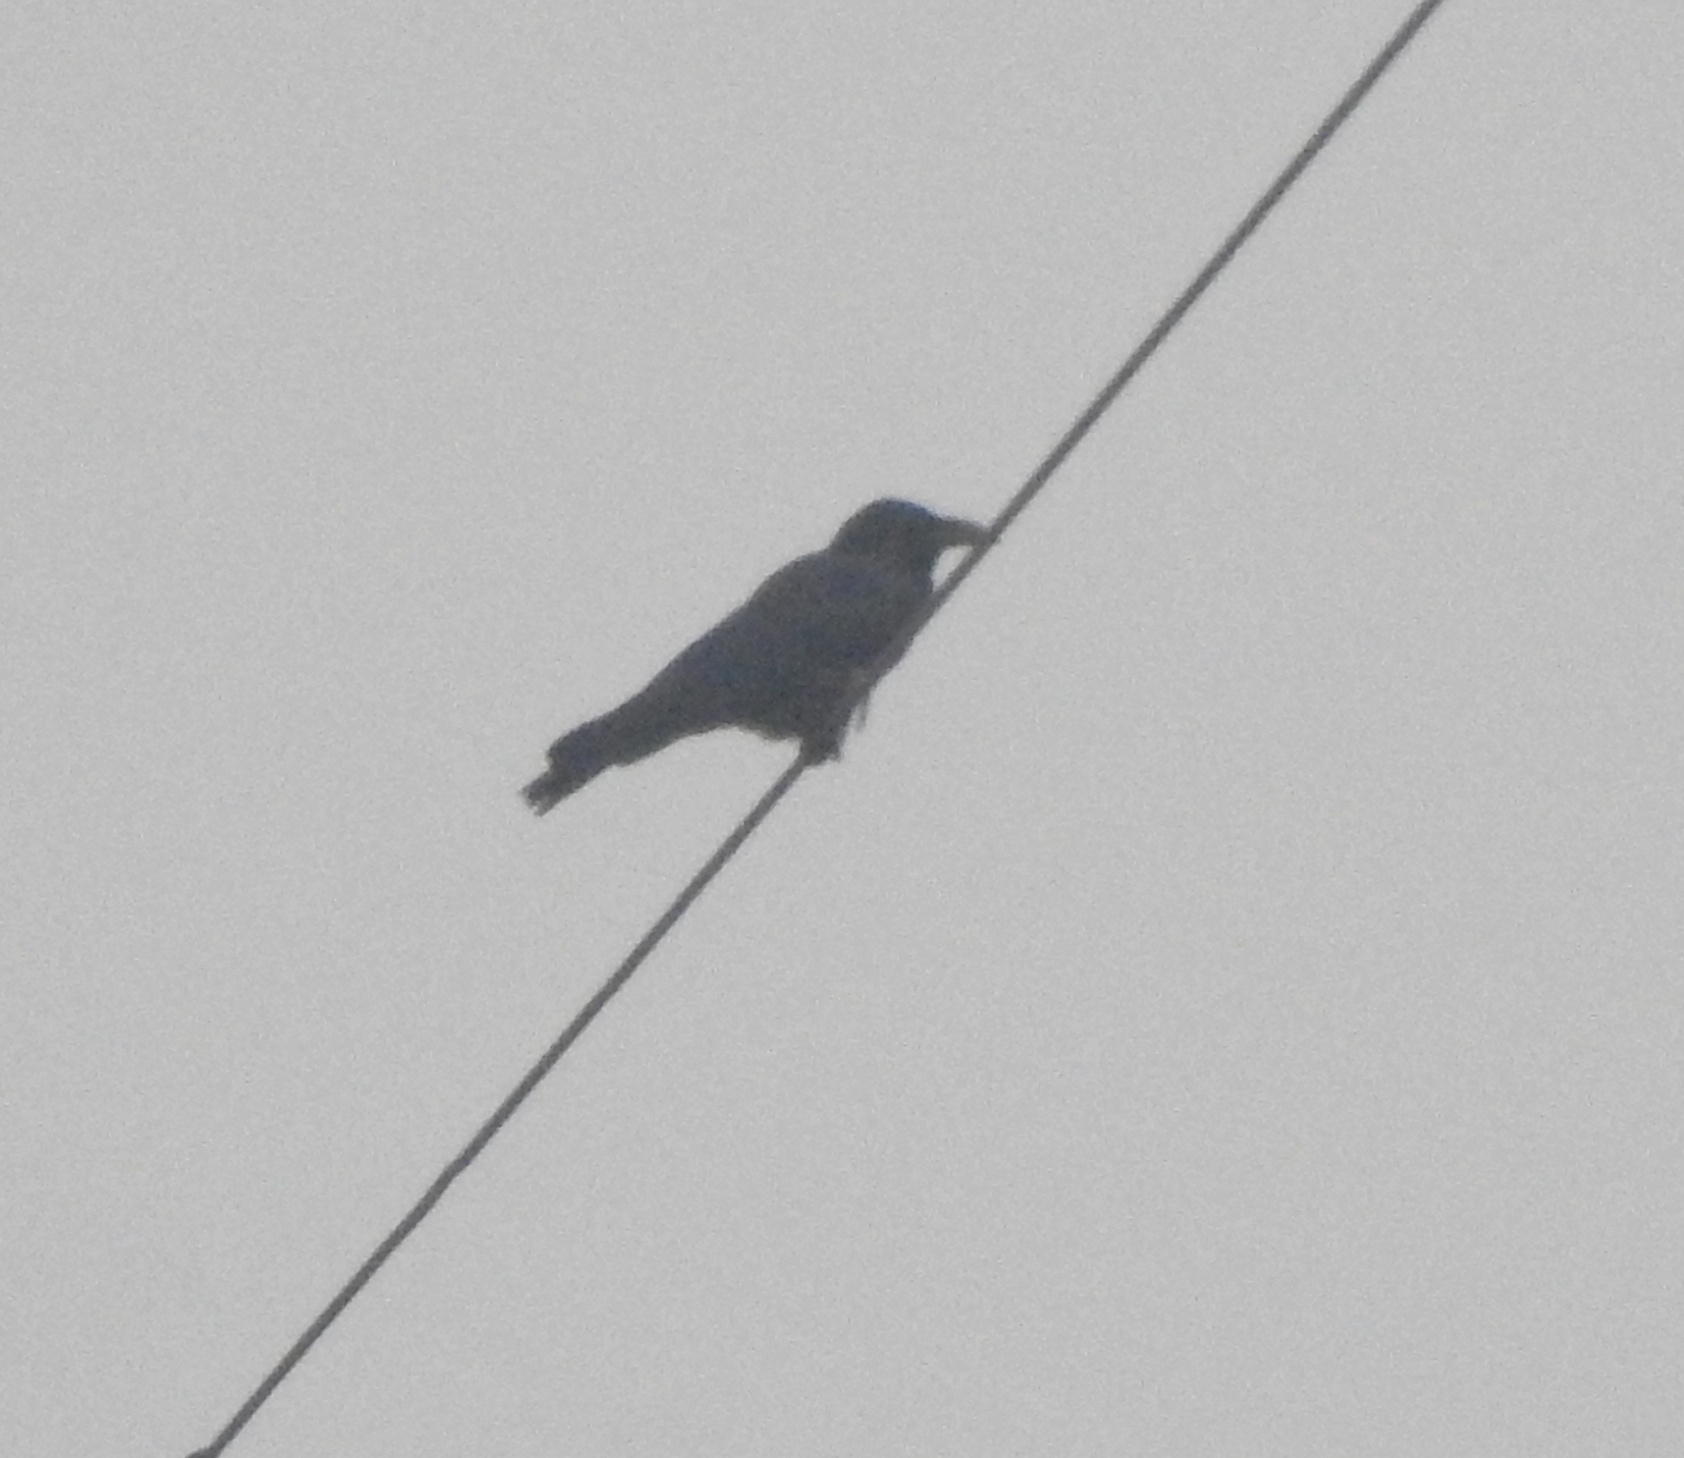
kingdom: Animalia
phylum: Chordata
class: Aves
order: Passeriformes
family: Corvidae
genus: Corvus
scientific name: Corvus macrorhynchos
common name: Large-billed crow
